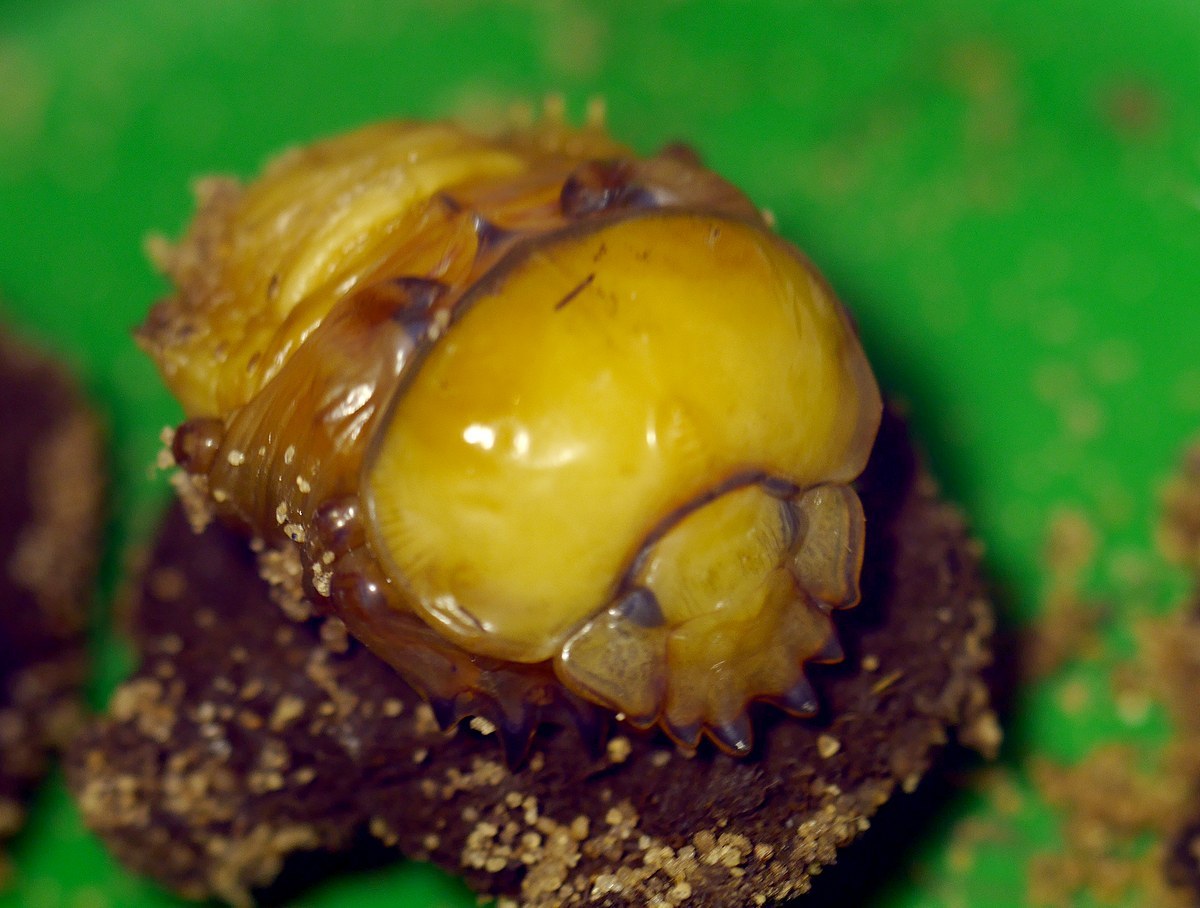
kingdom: Animalia
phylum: Arthropoda
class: Insecta
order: Coleoptera
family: Scarabaeidae
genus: Scarabaeus
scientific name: Scarabaeus typhon
